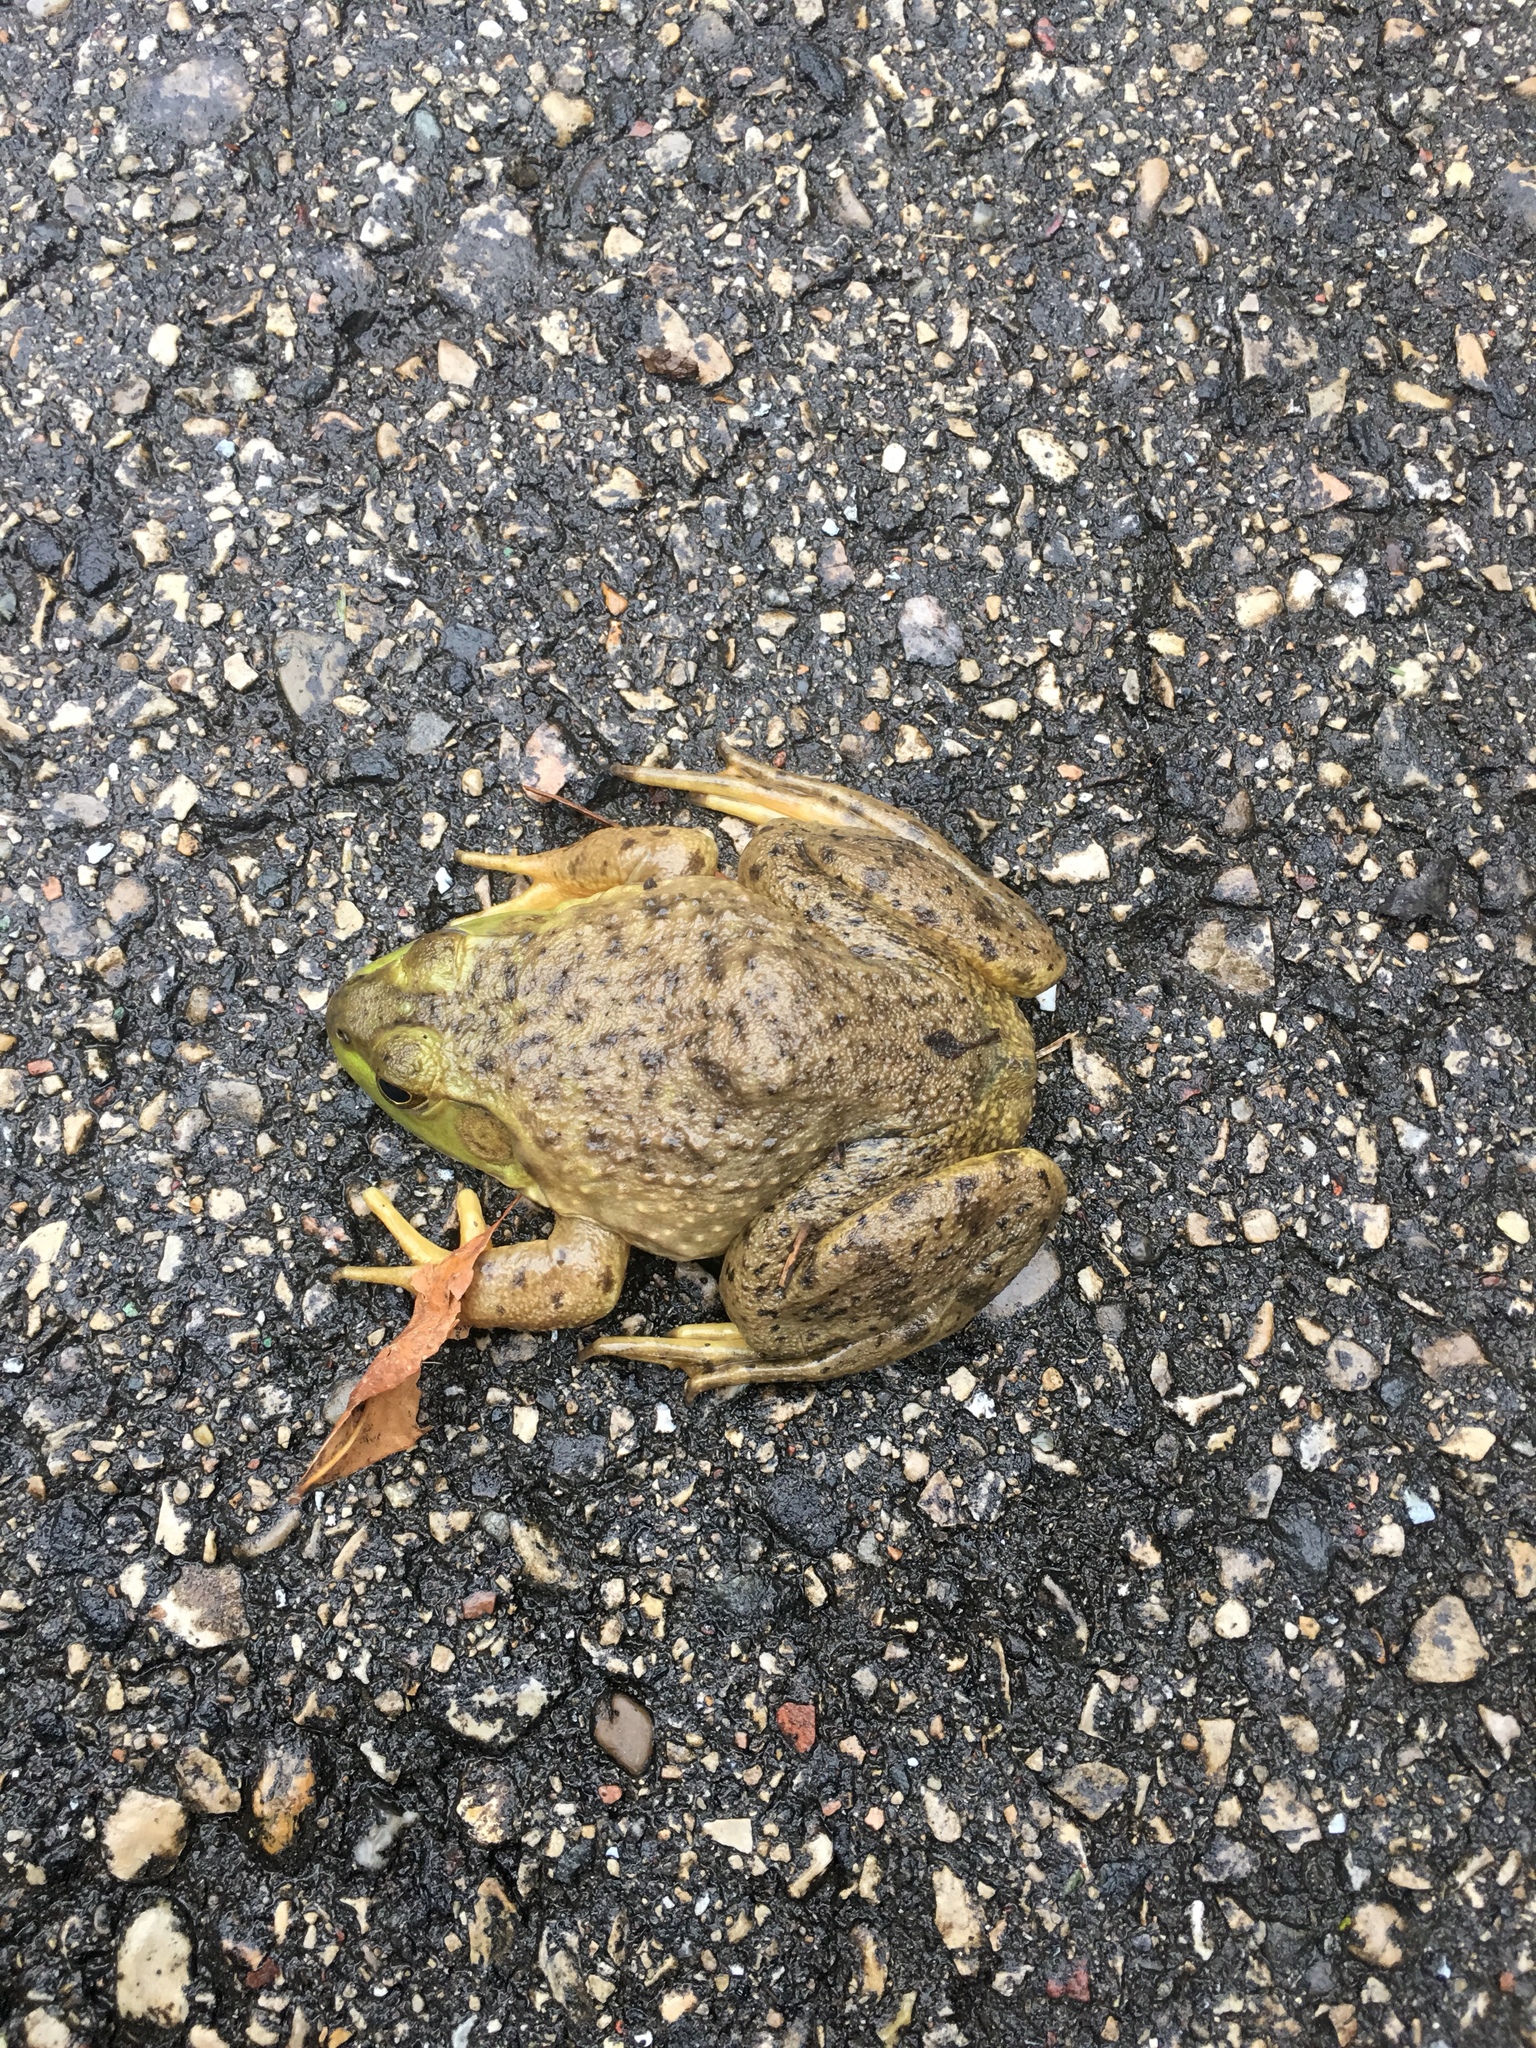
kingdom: Animalia
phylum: Chordata
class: Amphibia
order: Anura
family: Ranidae
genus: Lithobates
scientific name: Lithobates catesbeianus
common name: American bullfrog
